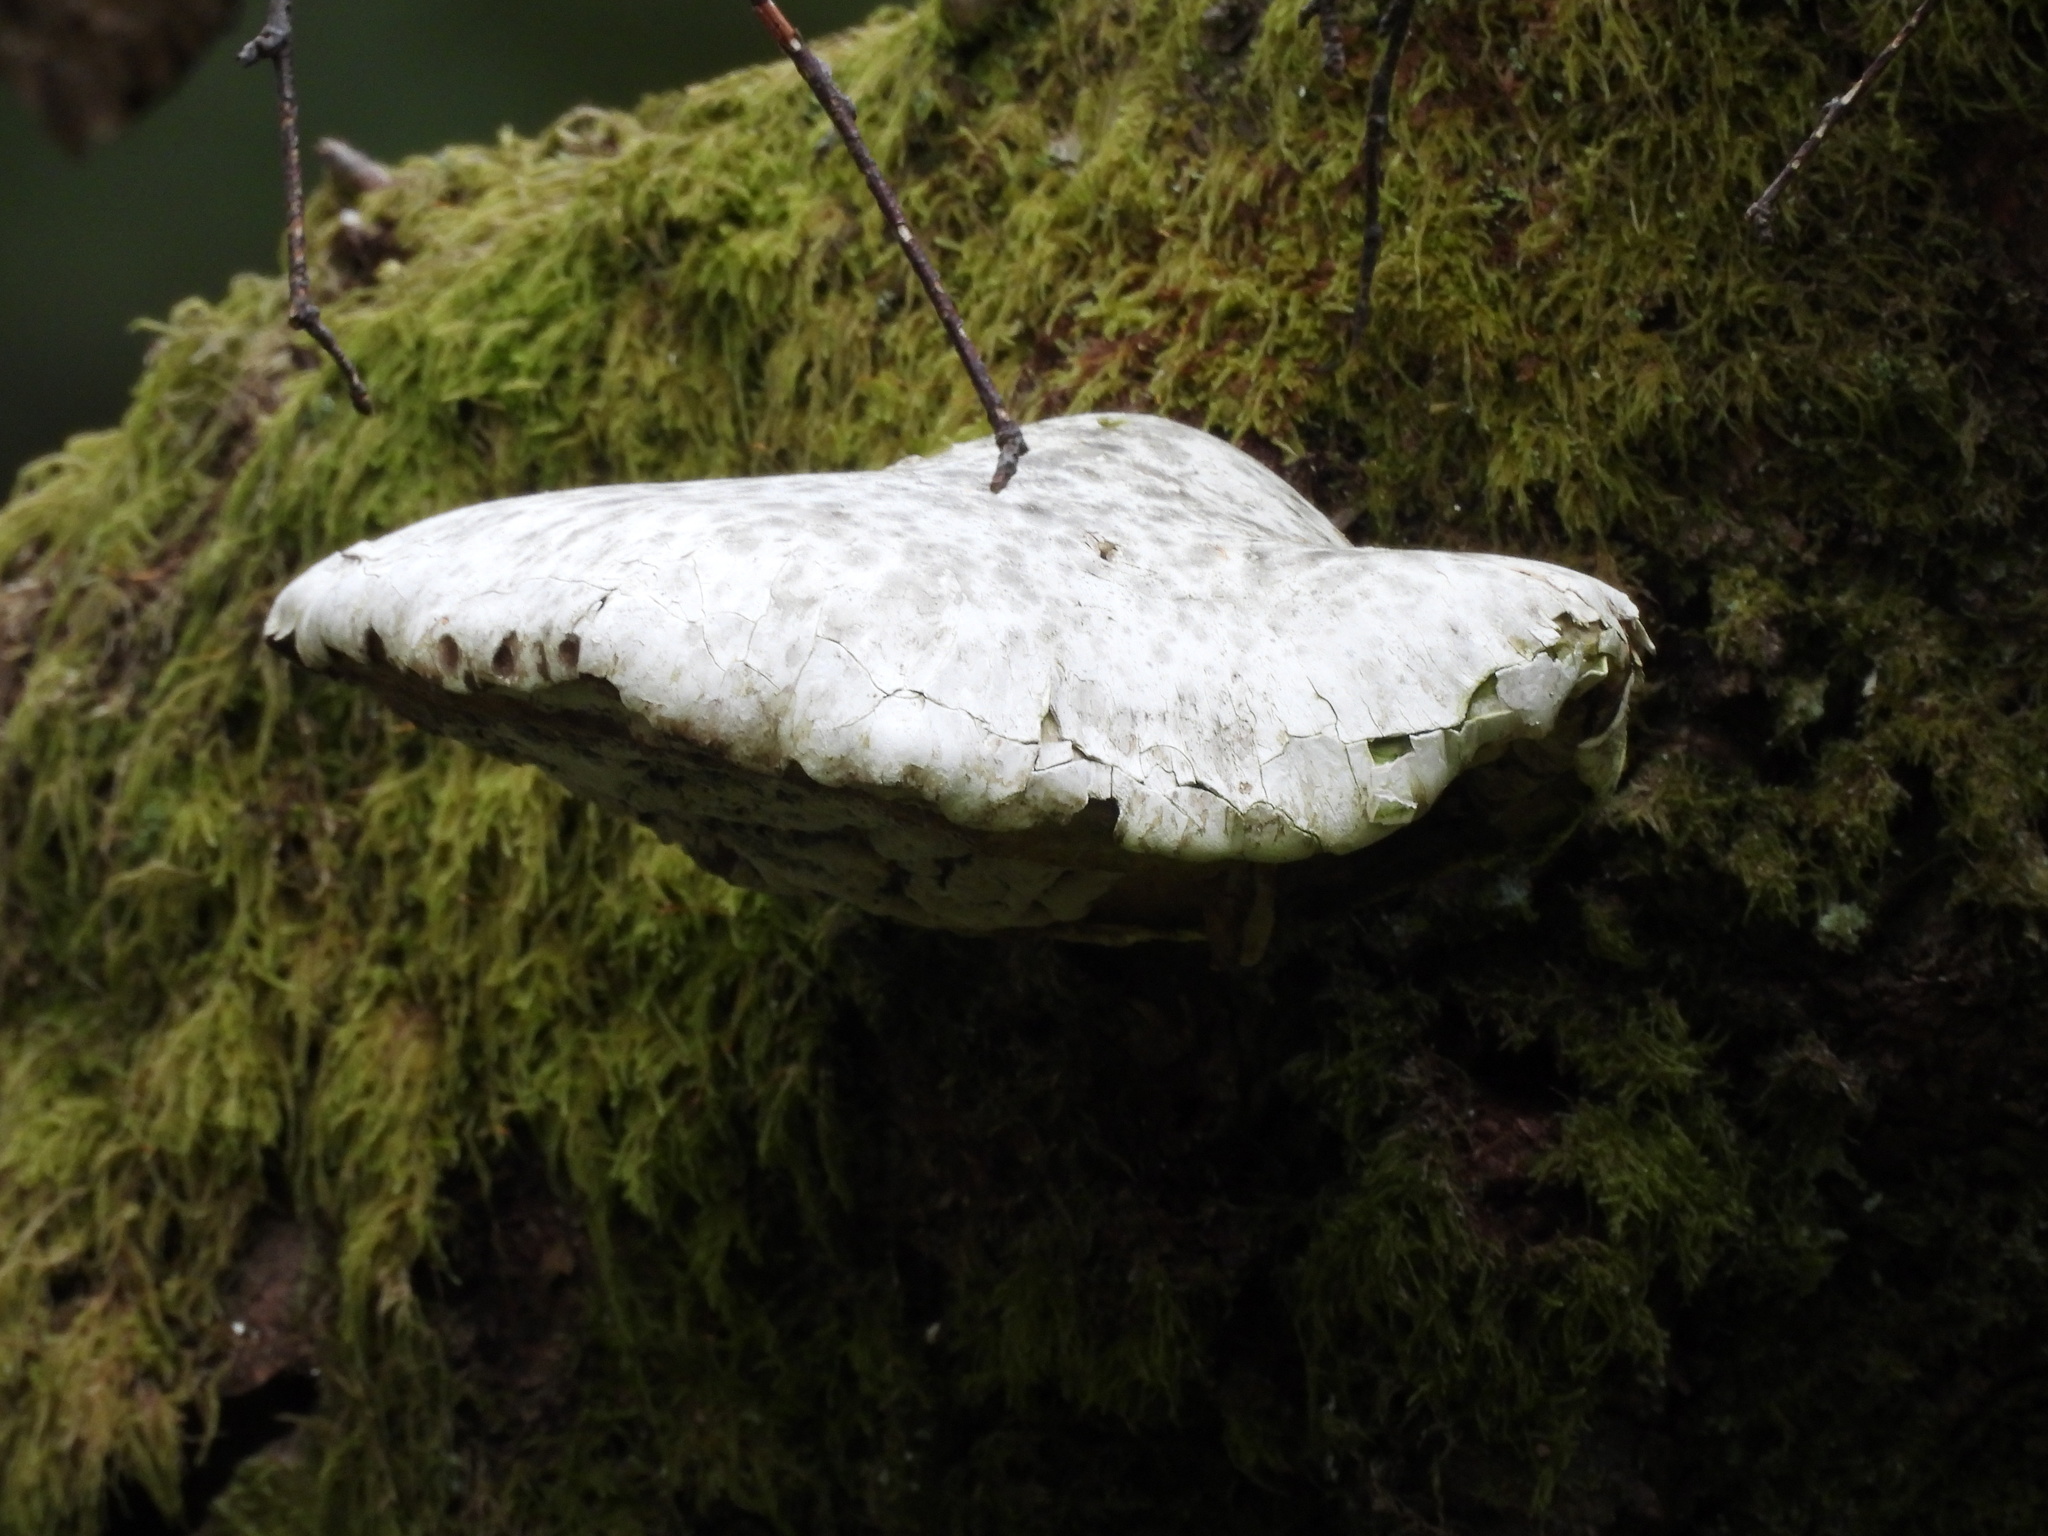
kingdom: Fungi
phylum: Basidiomycota
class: Agaricomycetes
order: Polyporales
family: Fomitopsidaceae
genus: Fomitopsis
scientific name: Fomitopsis betulina
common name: Birch polypore
